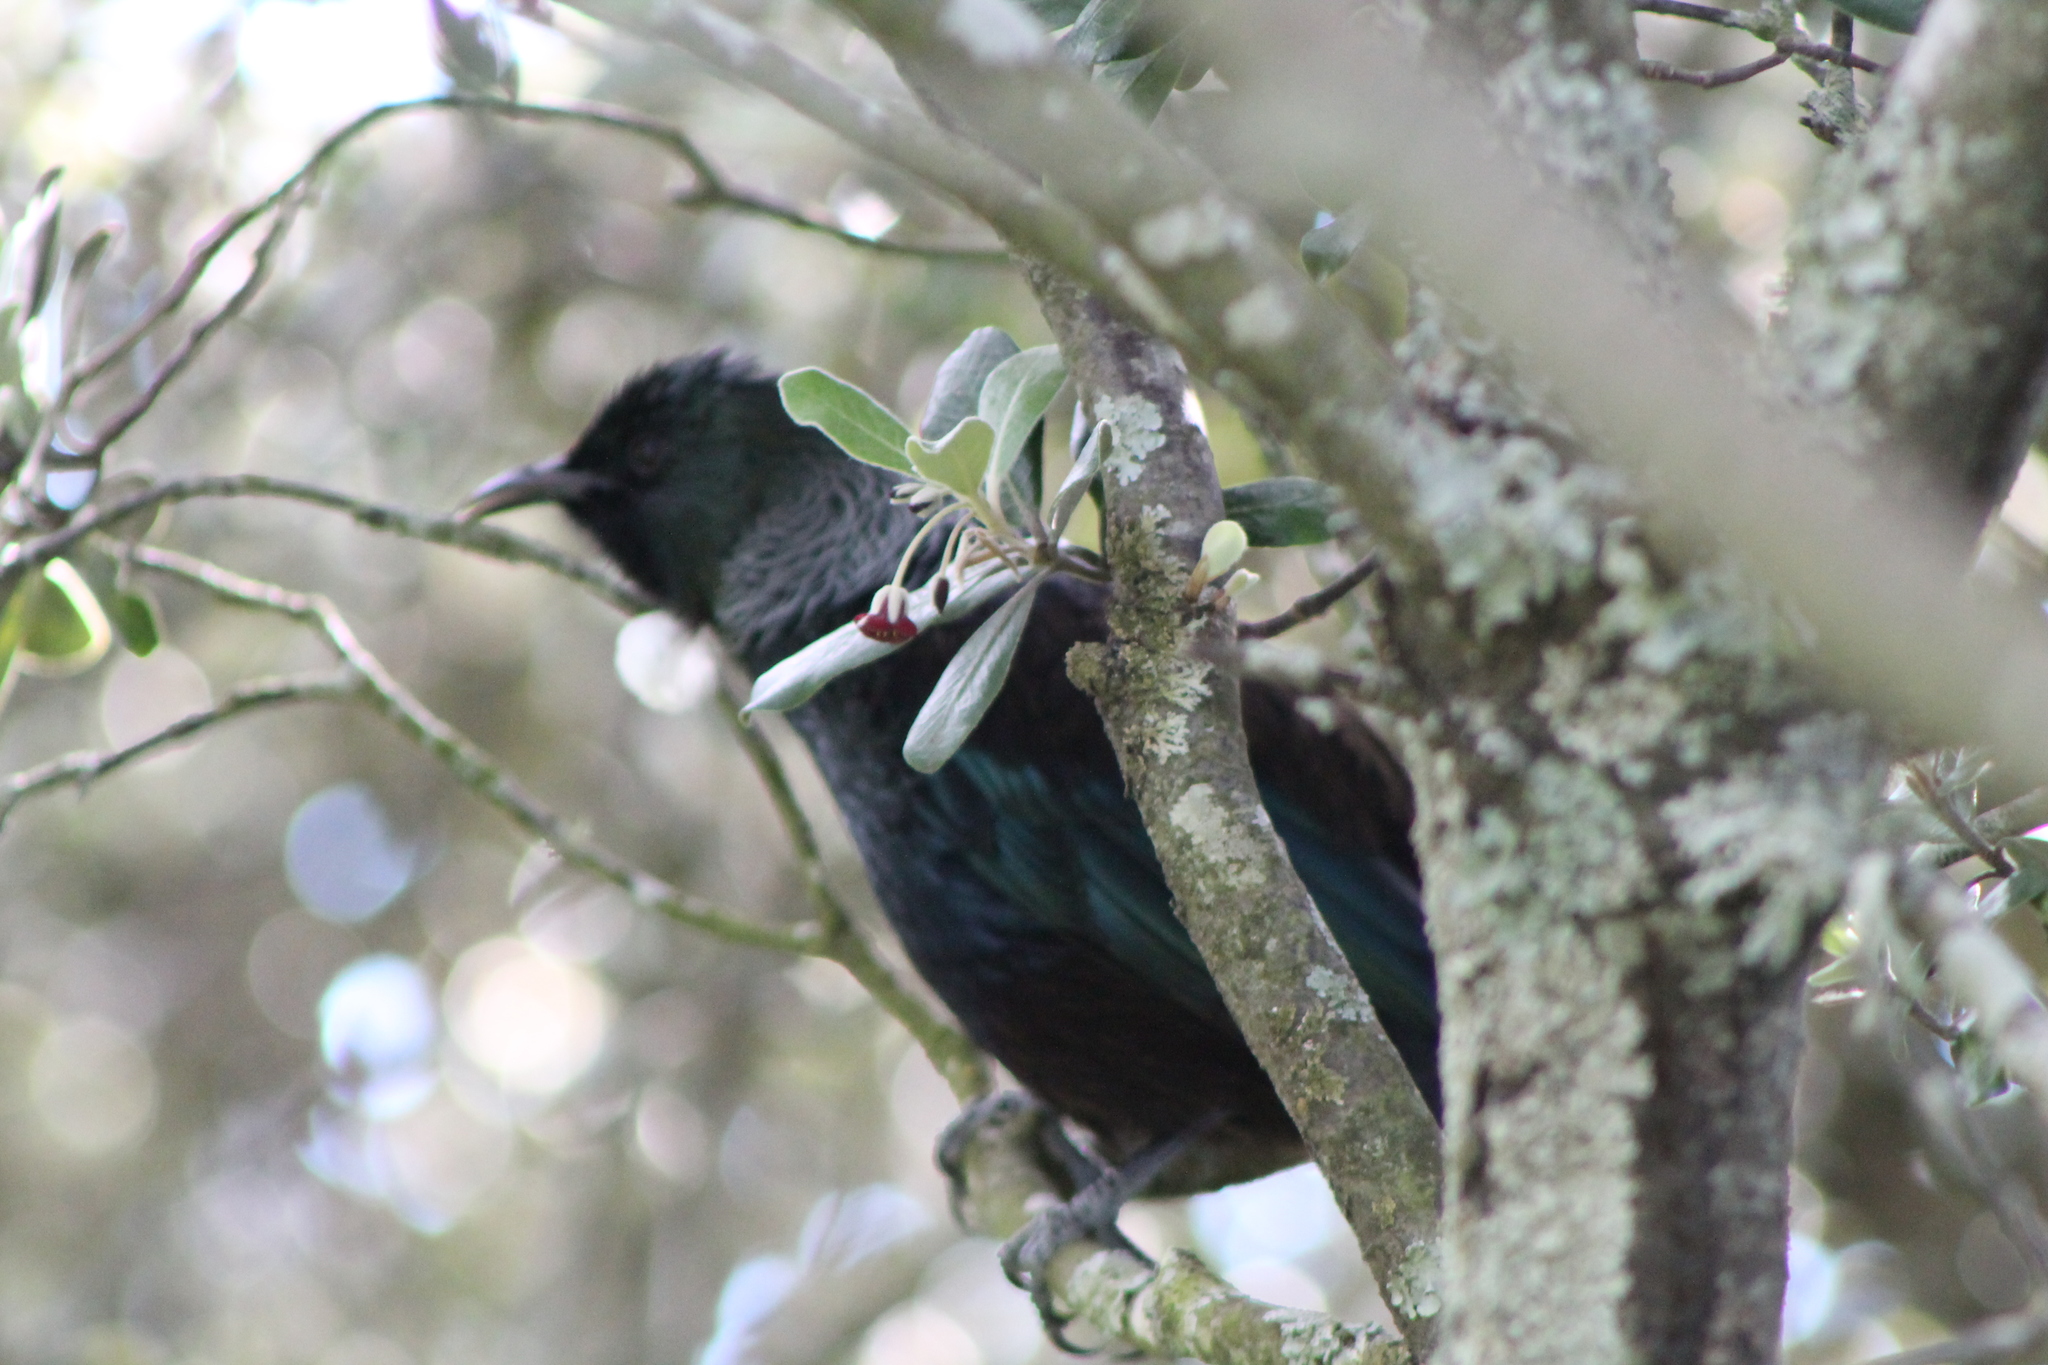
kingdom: Animalia
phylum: Chordata
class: Aves
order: Passeriformes
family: Meliphagidae
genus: Prosthemadera
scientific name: Prosthemadera novaeseelandiae
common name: Tui
